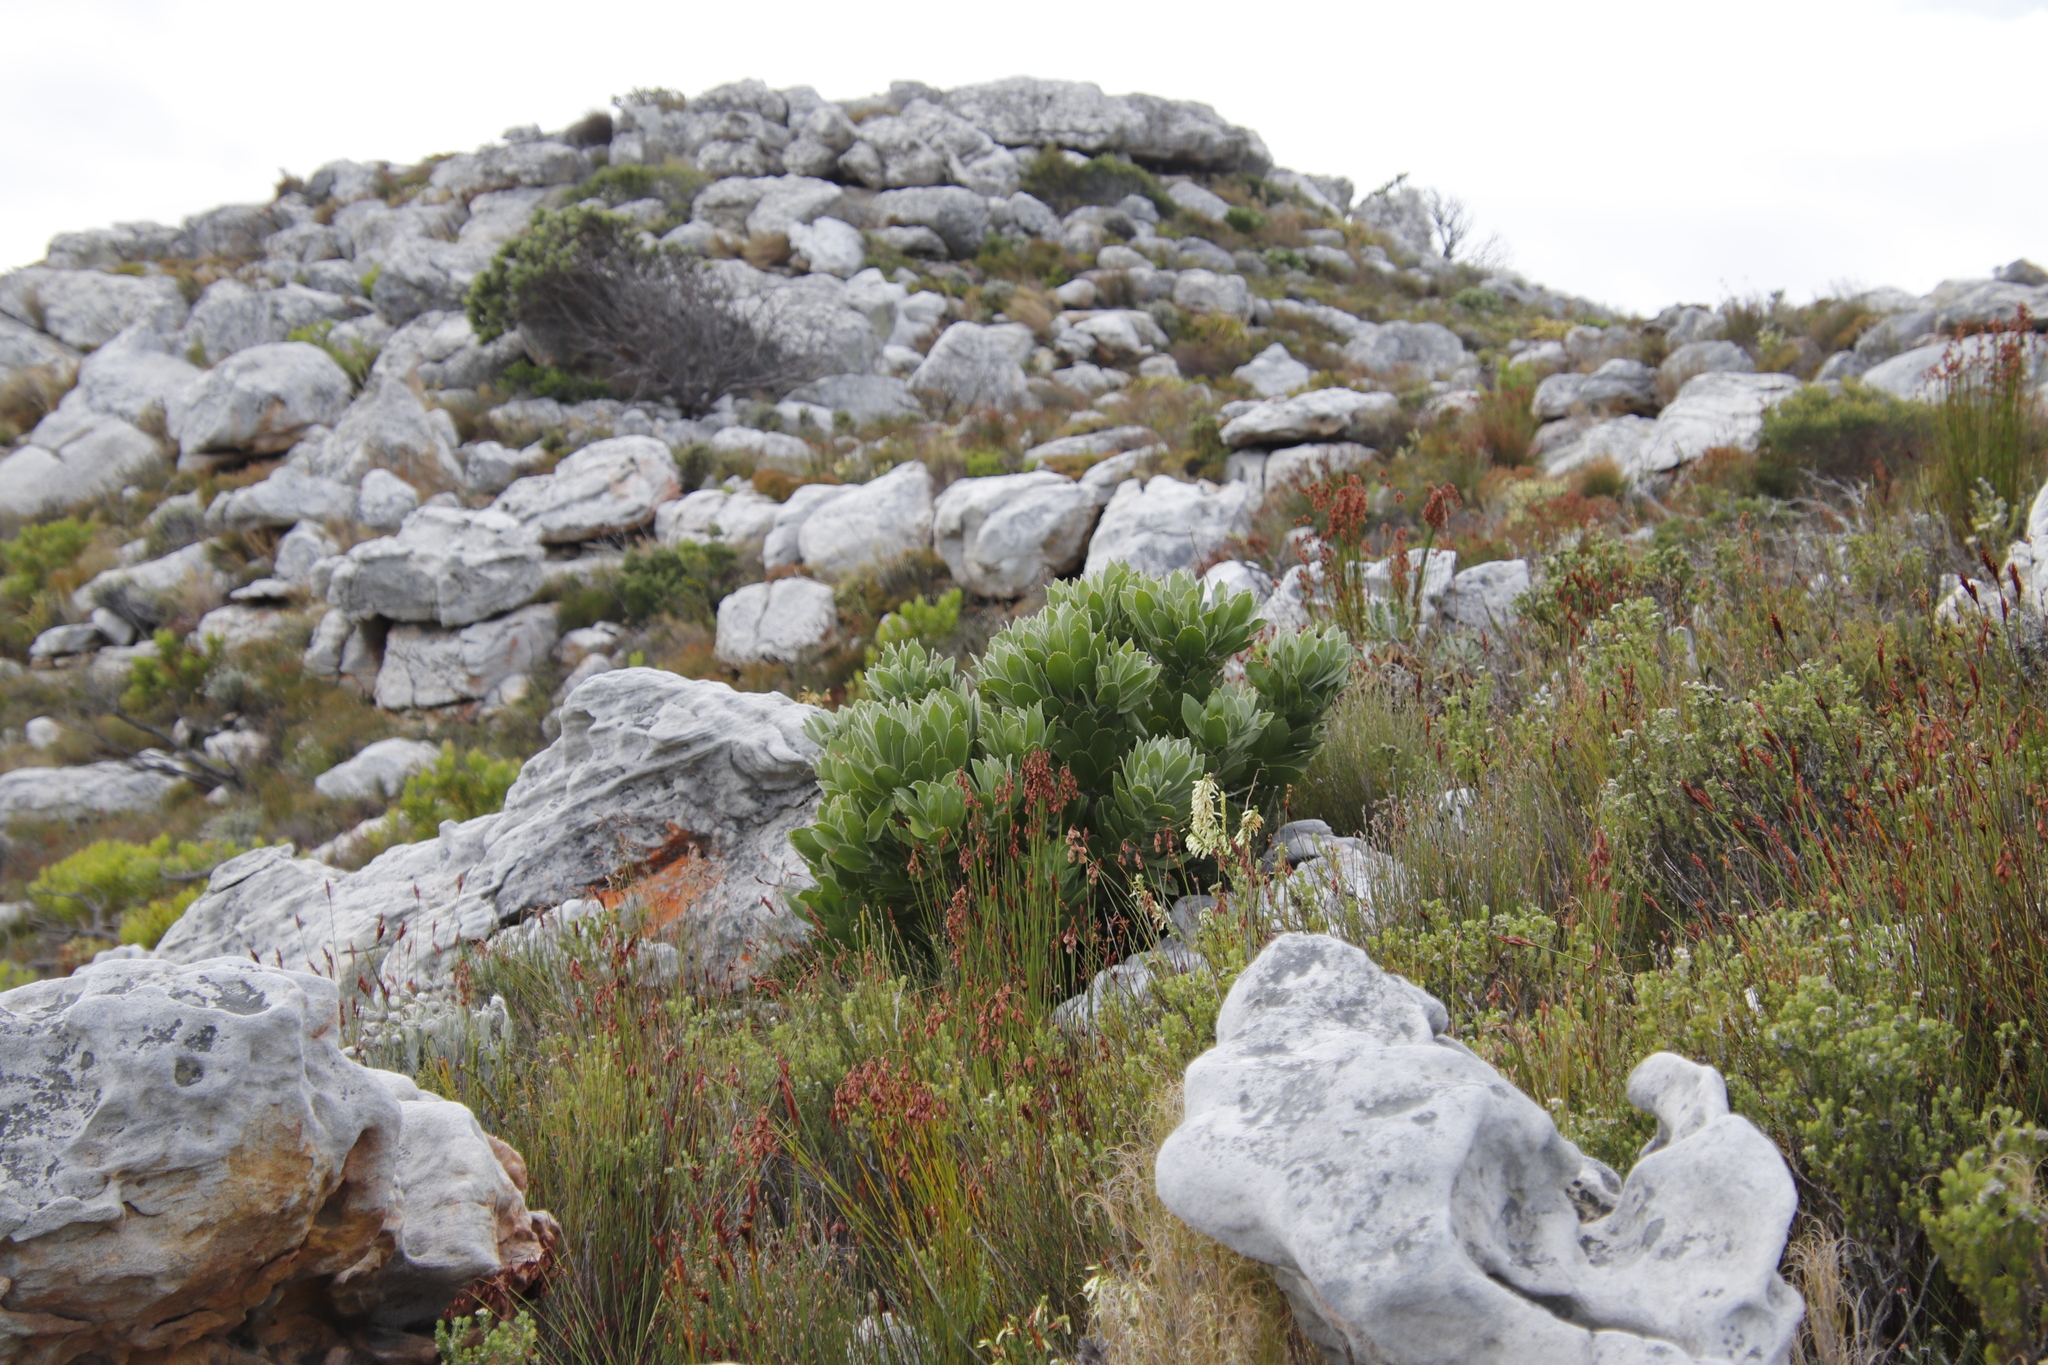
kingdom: Plantae
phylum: Tracheophyta
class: Magnoliopsida
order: Proteales
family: Proteaceae
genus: Leucospermum
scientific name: Leucospermum conocarpodendron
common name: Tree pincushion
